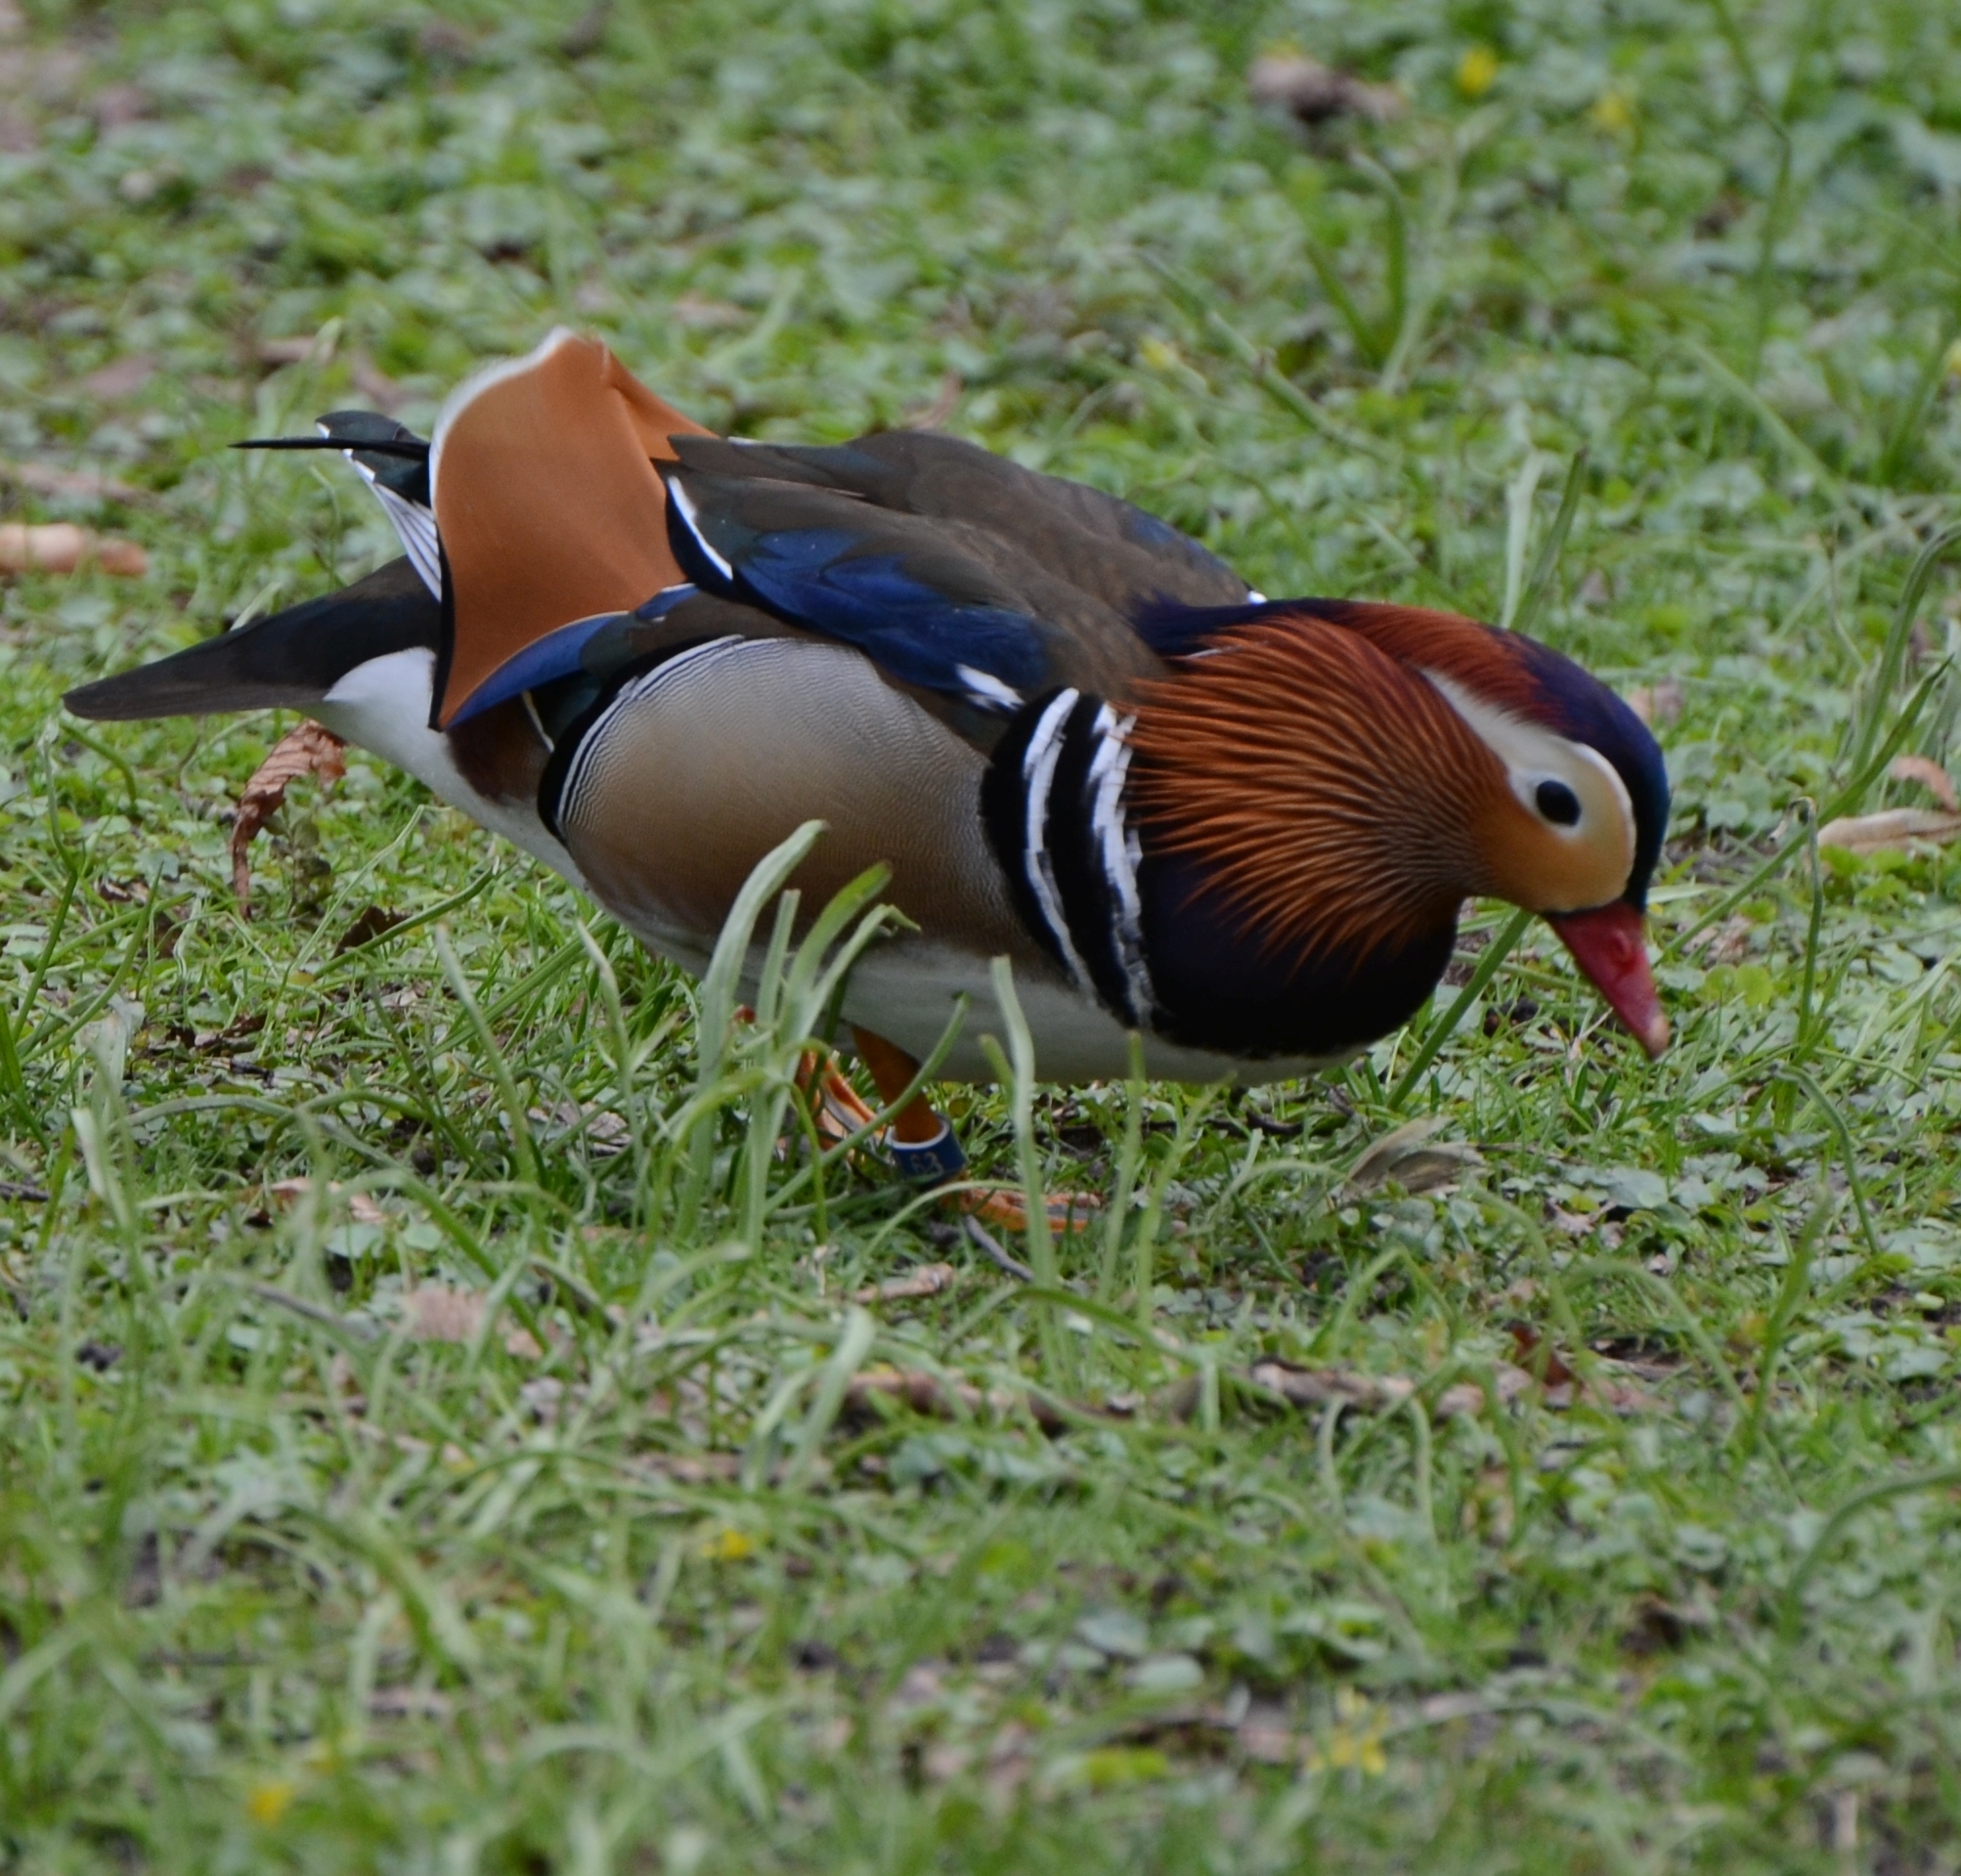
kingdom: Animalia
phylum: Chordata
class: Aves
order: Anseriformes
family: Anatidae
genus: Aix
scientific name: Aix galericulata
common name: Mandarin duck
